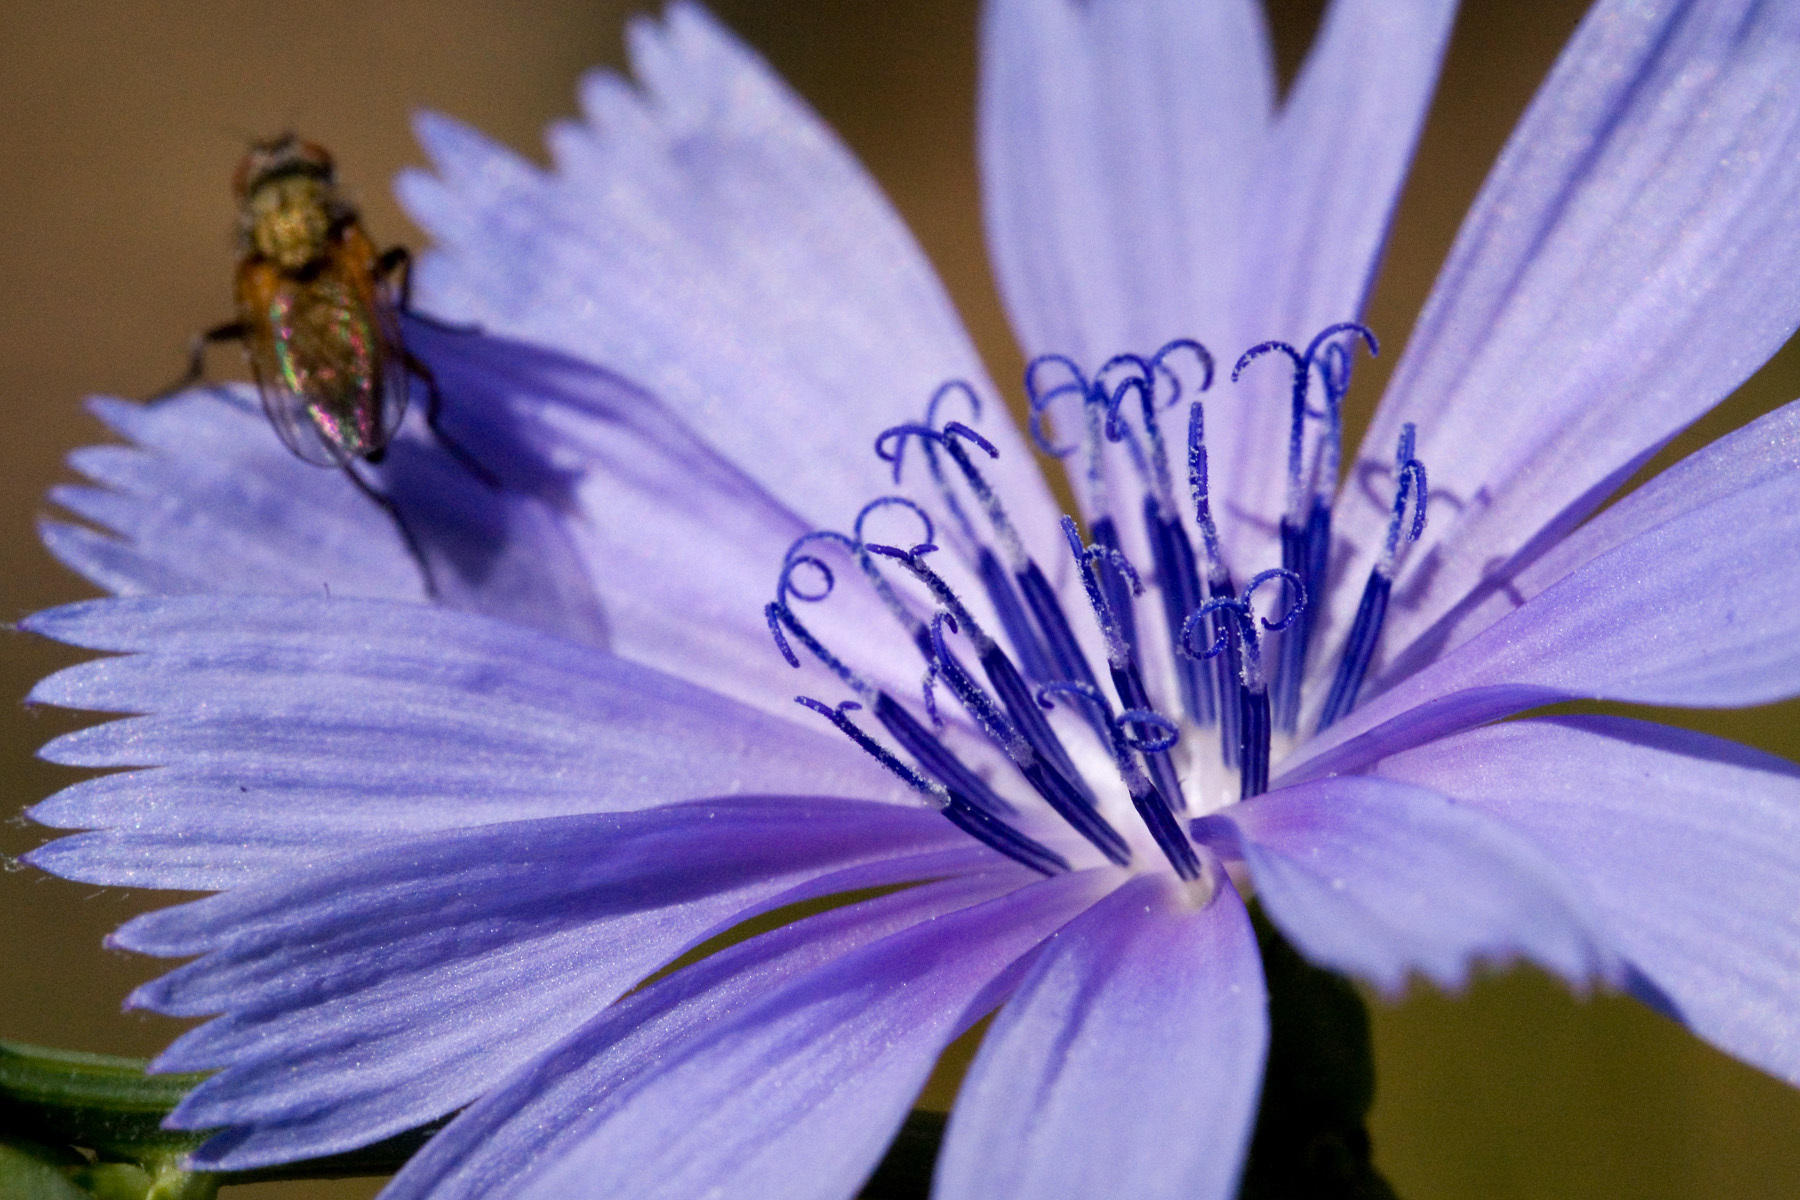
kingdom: Plantae
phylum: Tracheophyta
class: Magnoliopsida
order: Asterales
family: Asteraceae
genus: Cichorium
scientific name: Cichorium intybus
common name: Chicory
